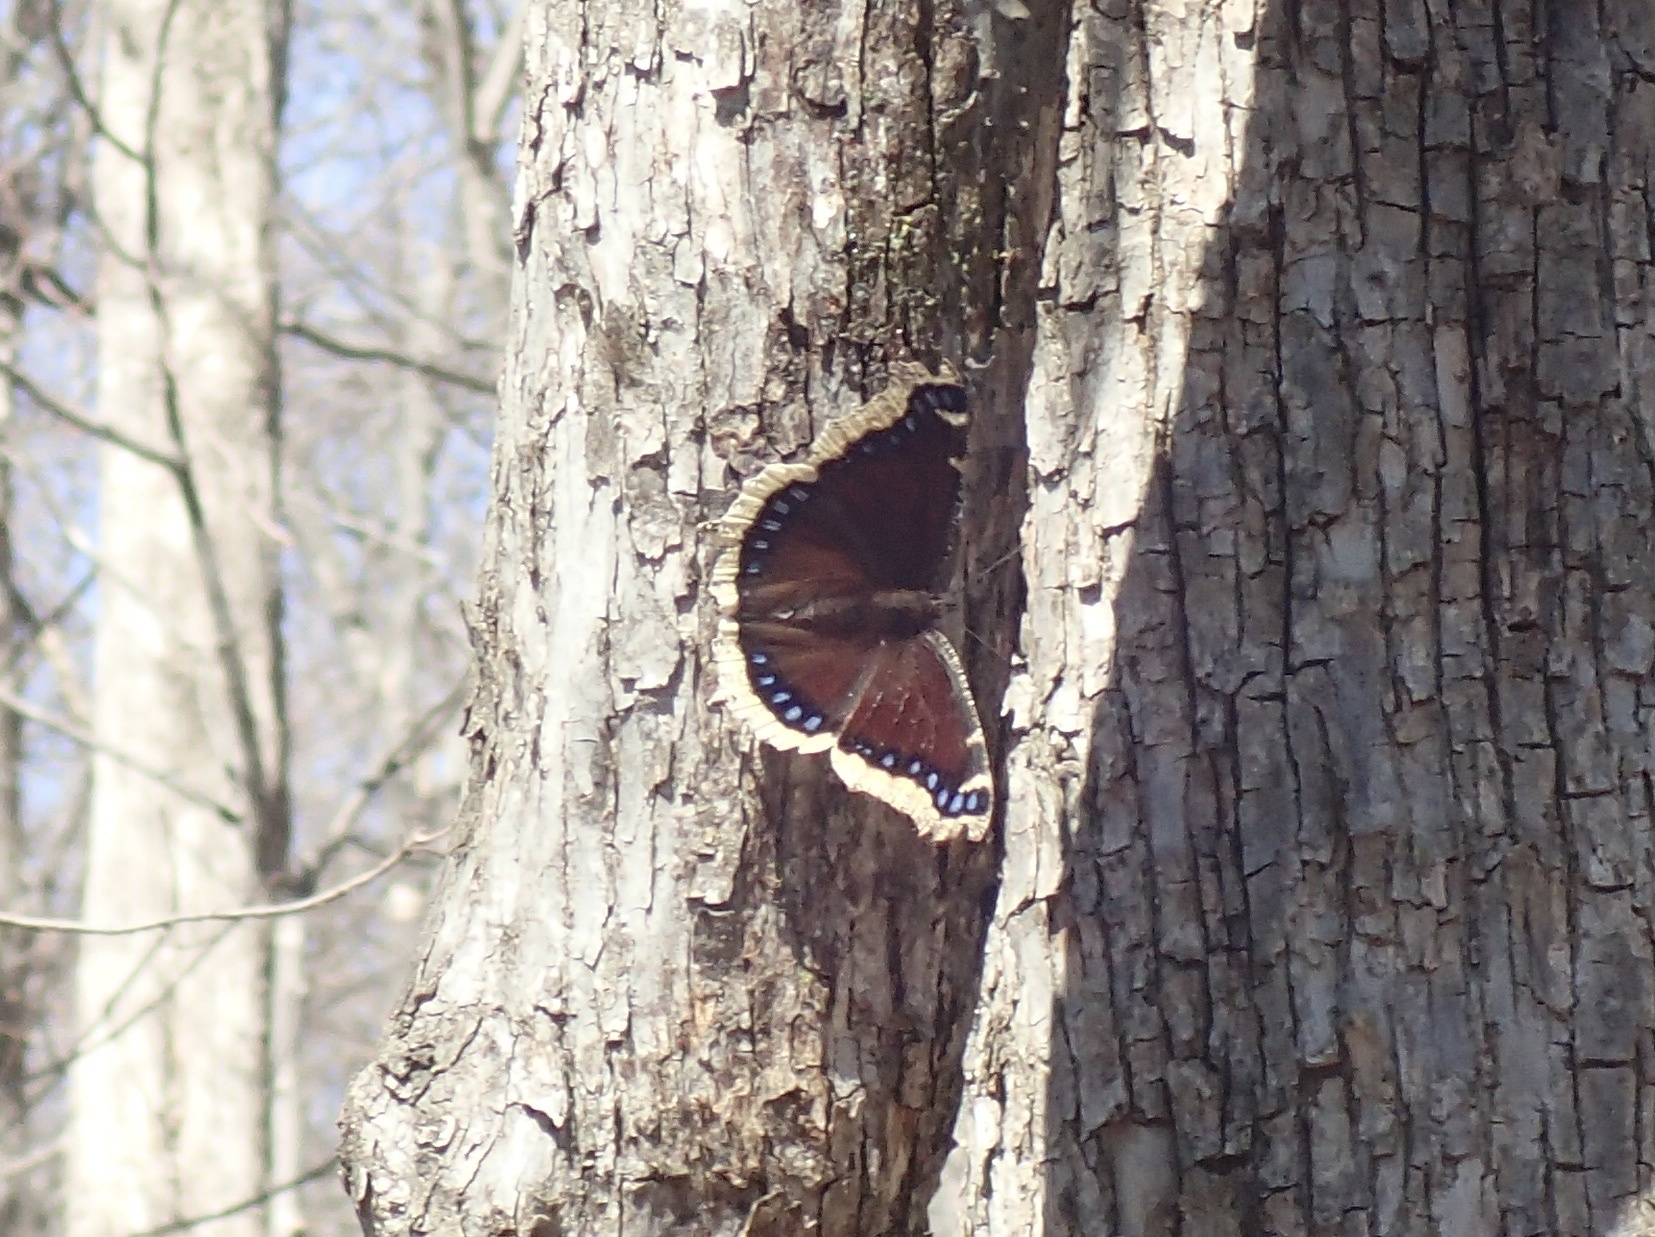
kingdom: Animalia
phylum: Arthropoda
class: Insecta
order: Lepidoptera
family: Nymphalidae
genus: Nymphalis
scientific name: Nymphalis antiopa
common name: Camberwell beauty
